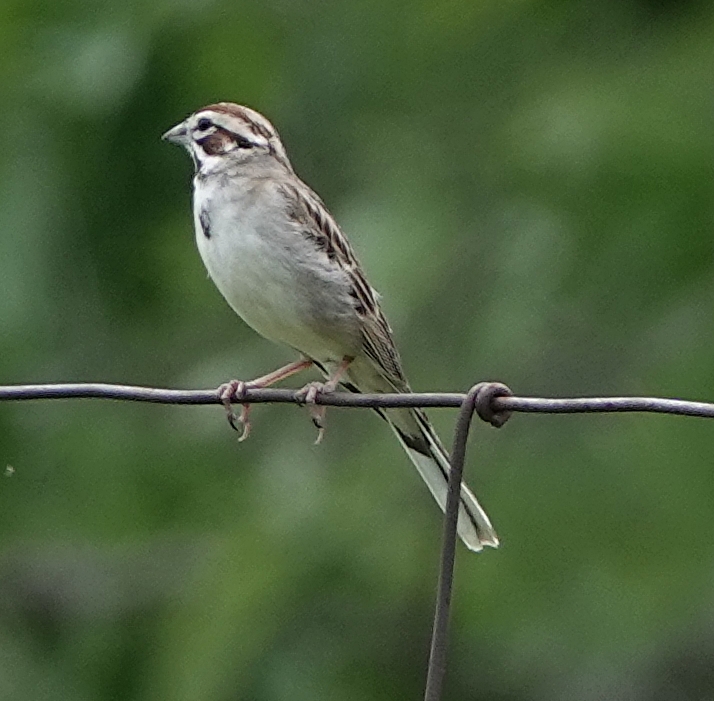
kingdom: Animalia
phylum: Chordata
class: Aves
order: Passeriformes
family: Passerellidae
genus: Chondestes
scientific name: Chondestes grammacus
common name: Lark sparrow
